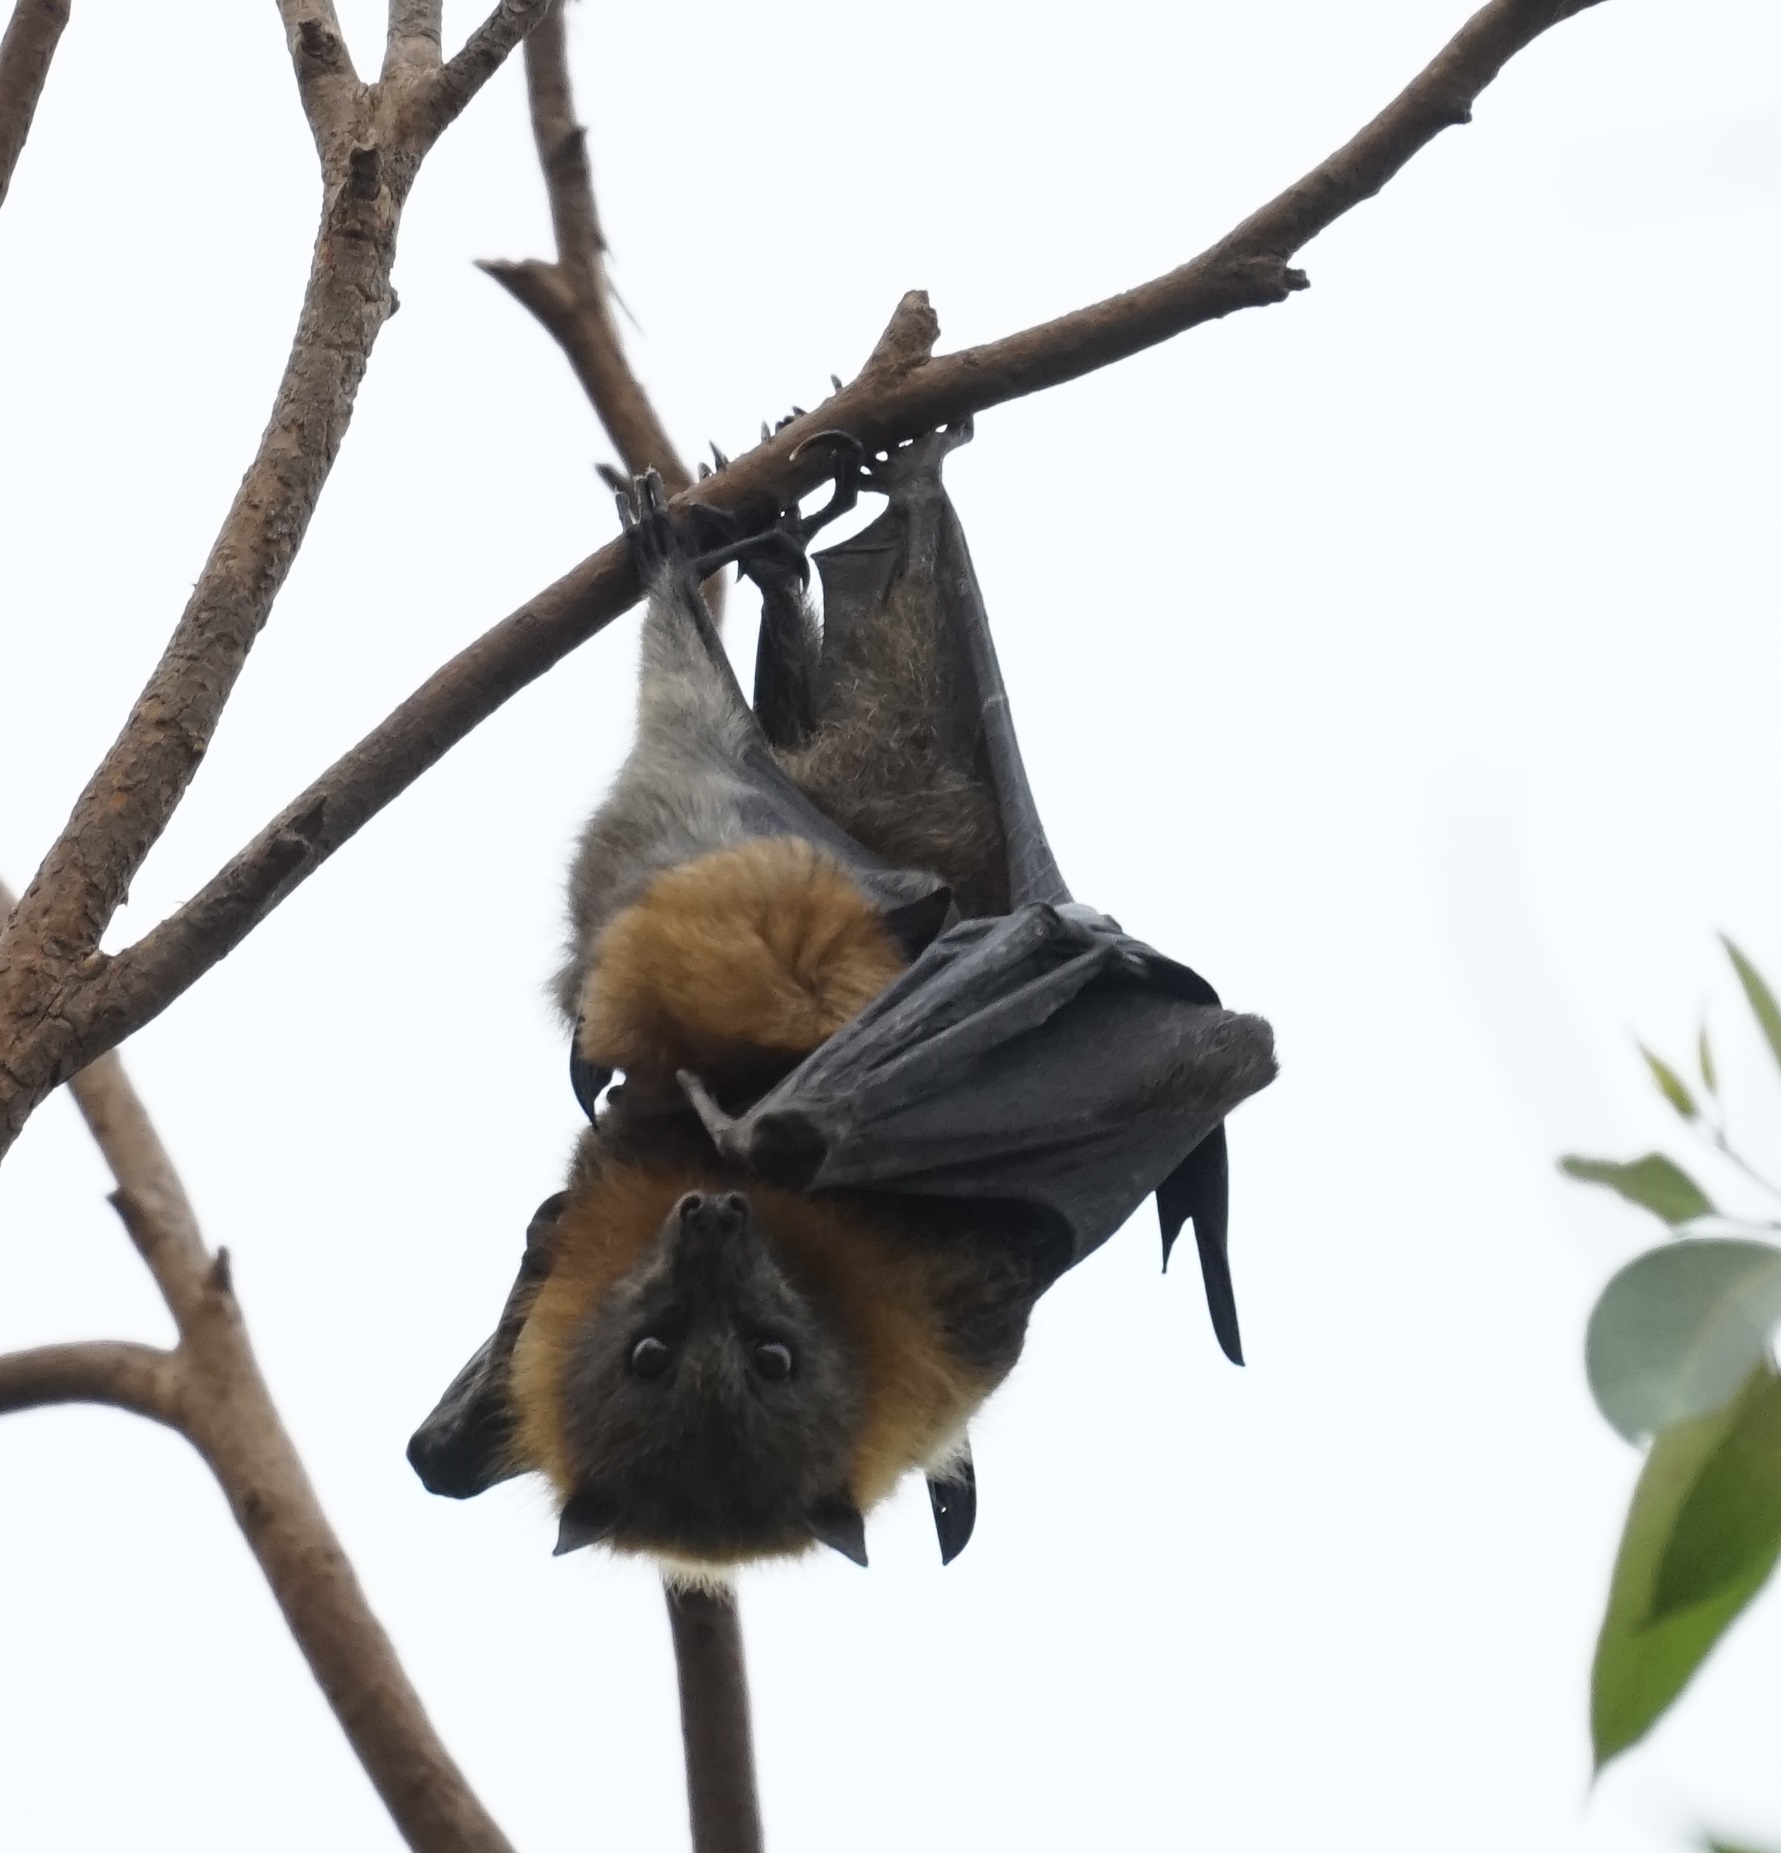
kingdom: Animalia
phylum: Chordata
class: Mammalia
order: Chiroptera
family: Pteropodidae
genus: Pteropus
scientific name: Pteropus poliocephalus
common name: Gray-headed flying fox
